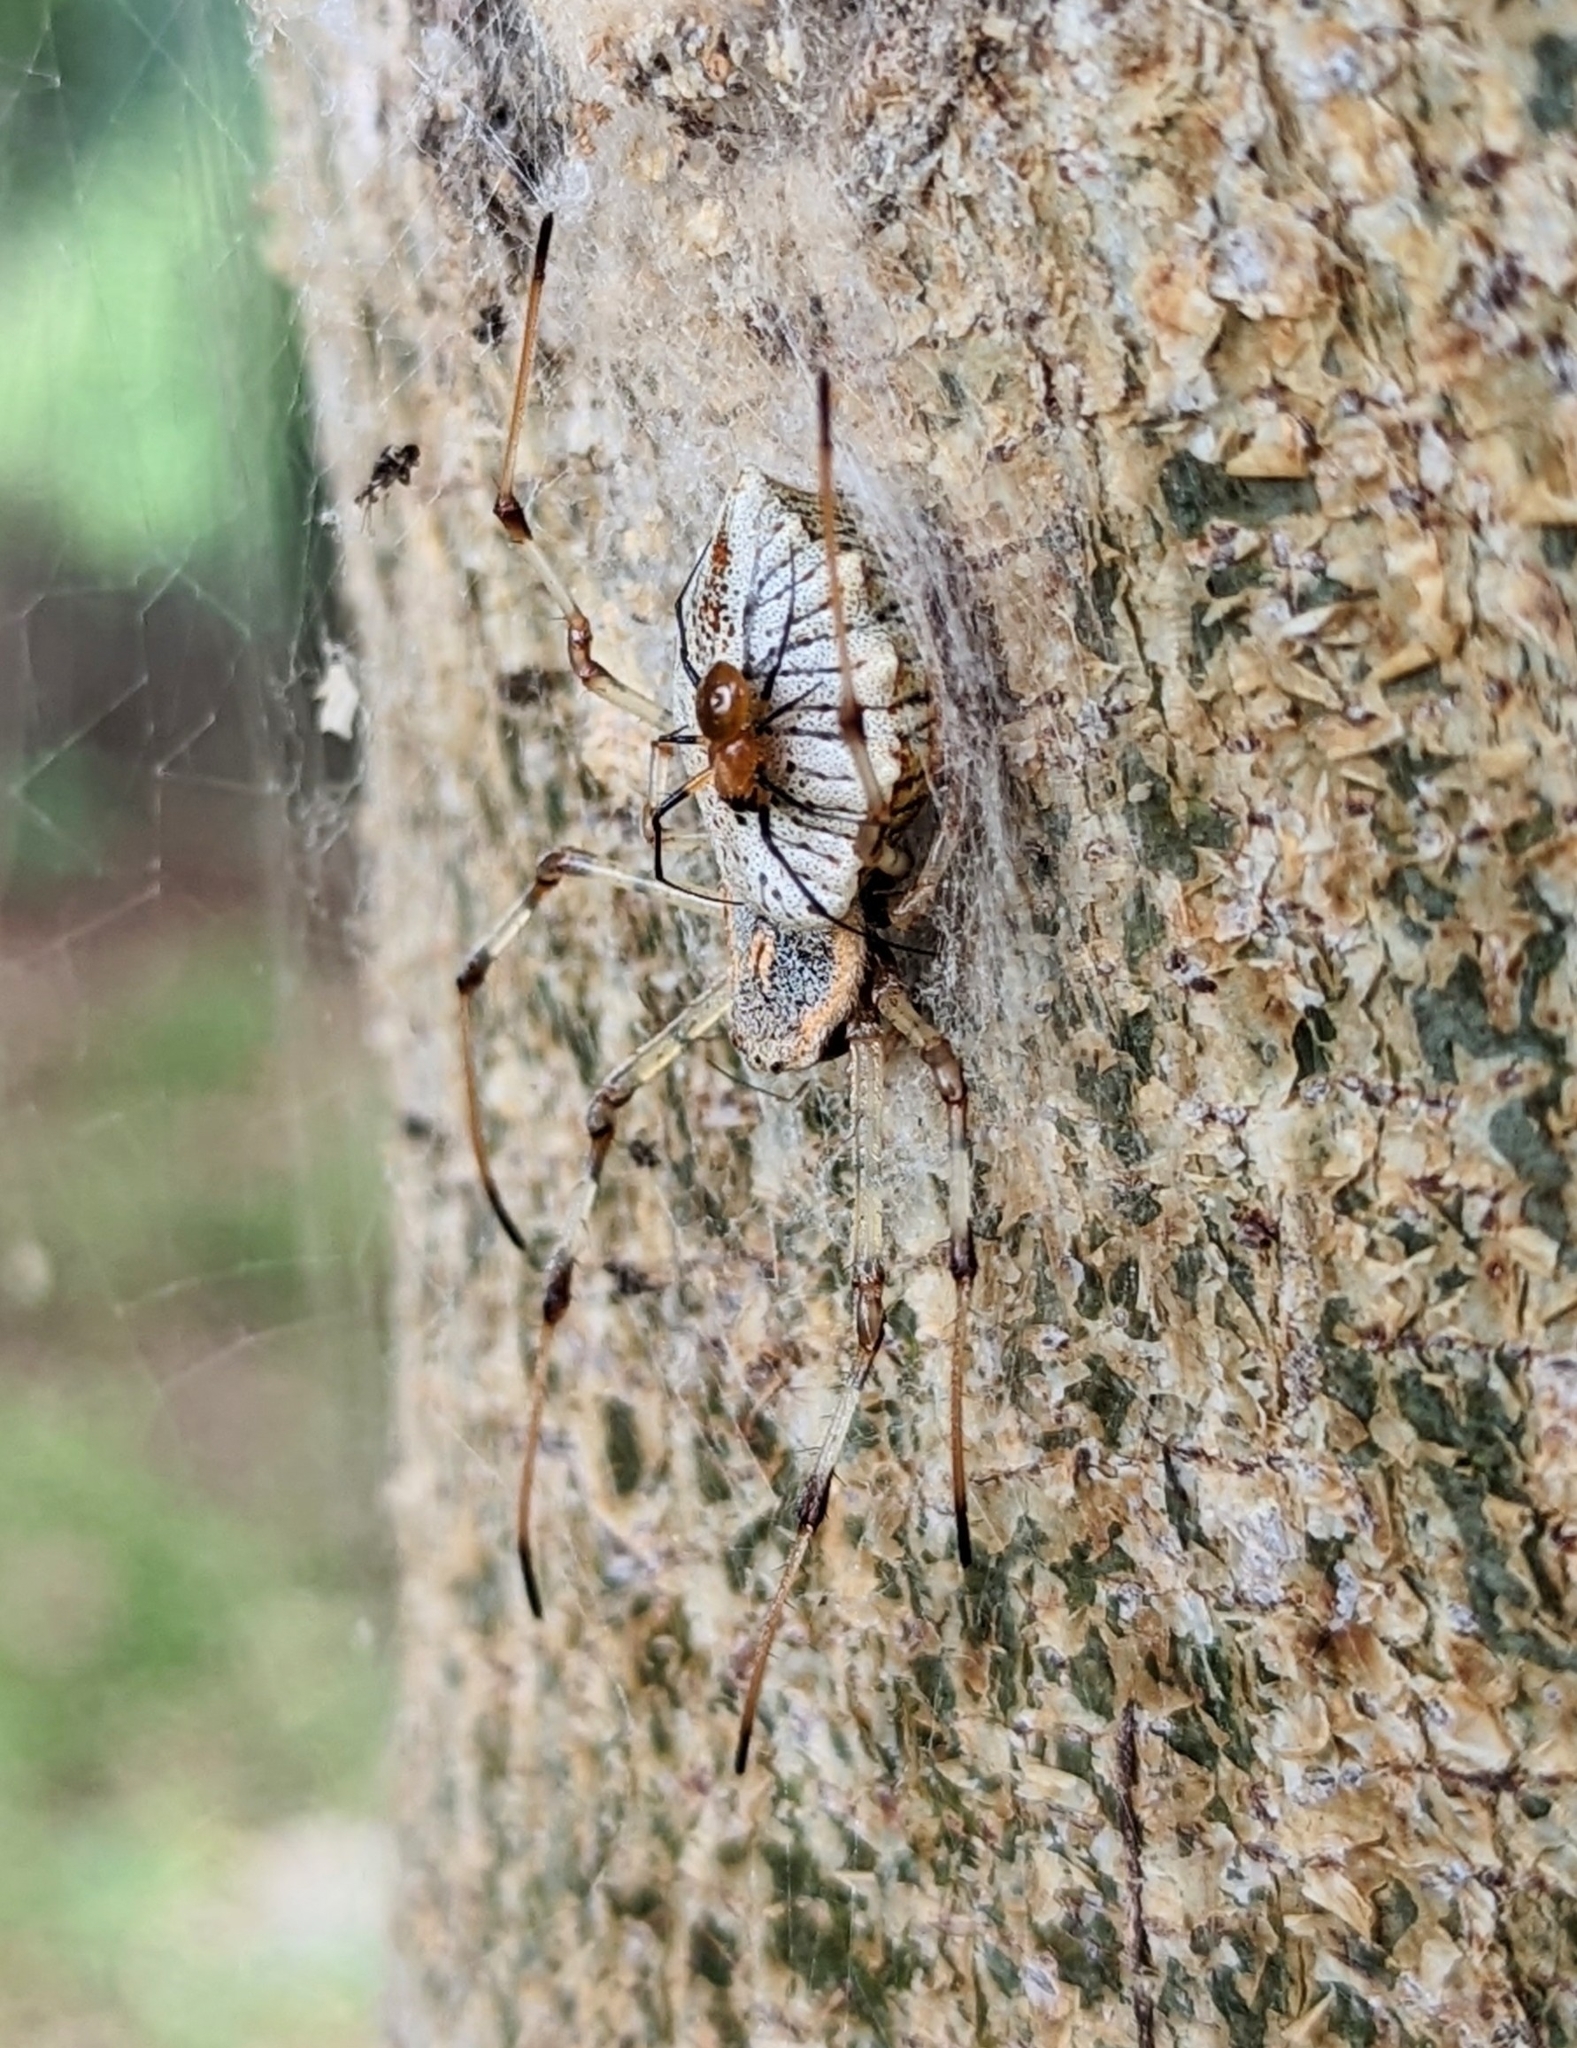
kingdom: Animalia
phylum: Arthropoda
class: Arachnida
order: Araneae
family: Araneidae
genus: Herennia
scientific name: Herennia multipuncta
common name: Spotted coin spider
